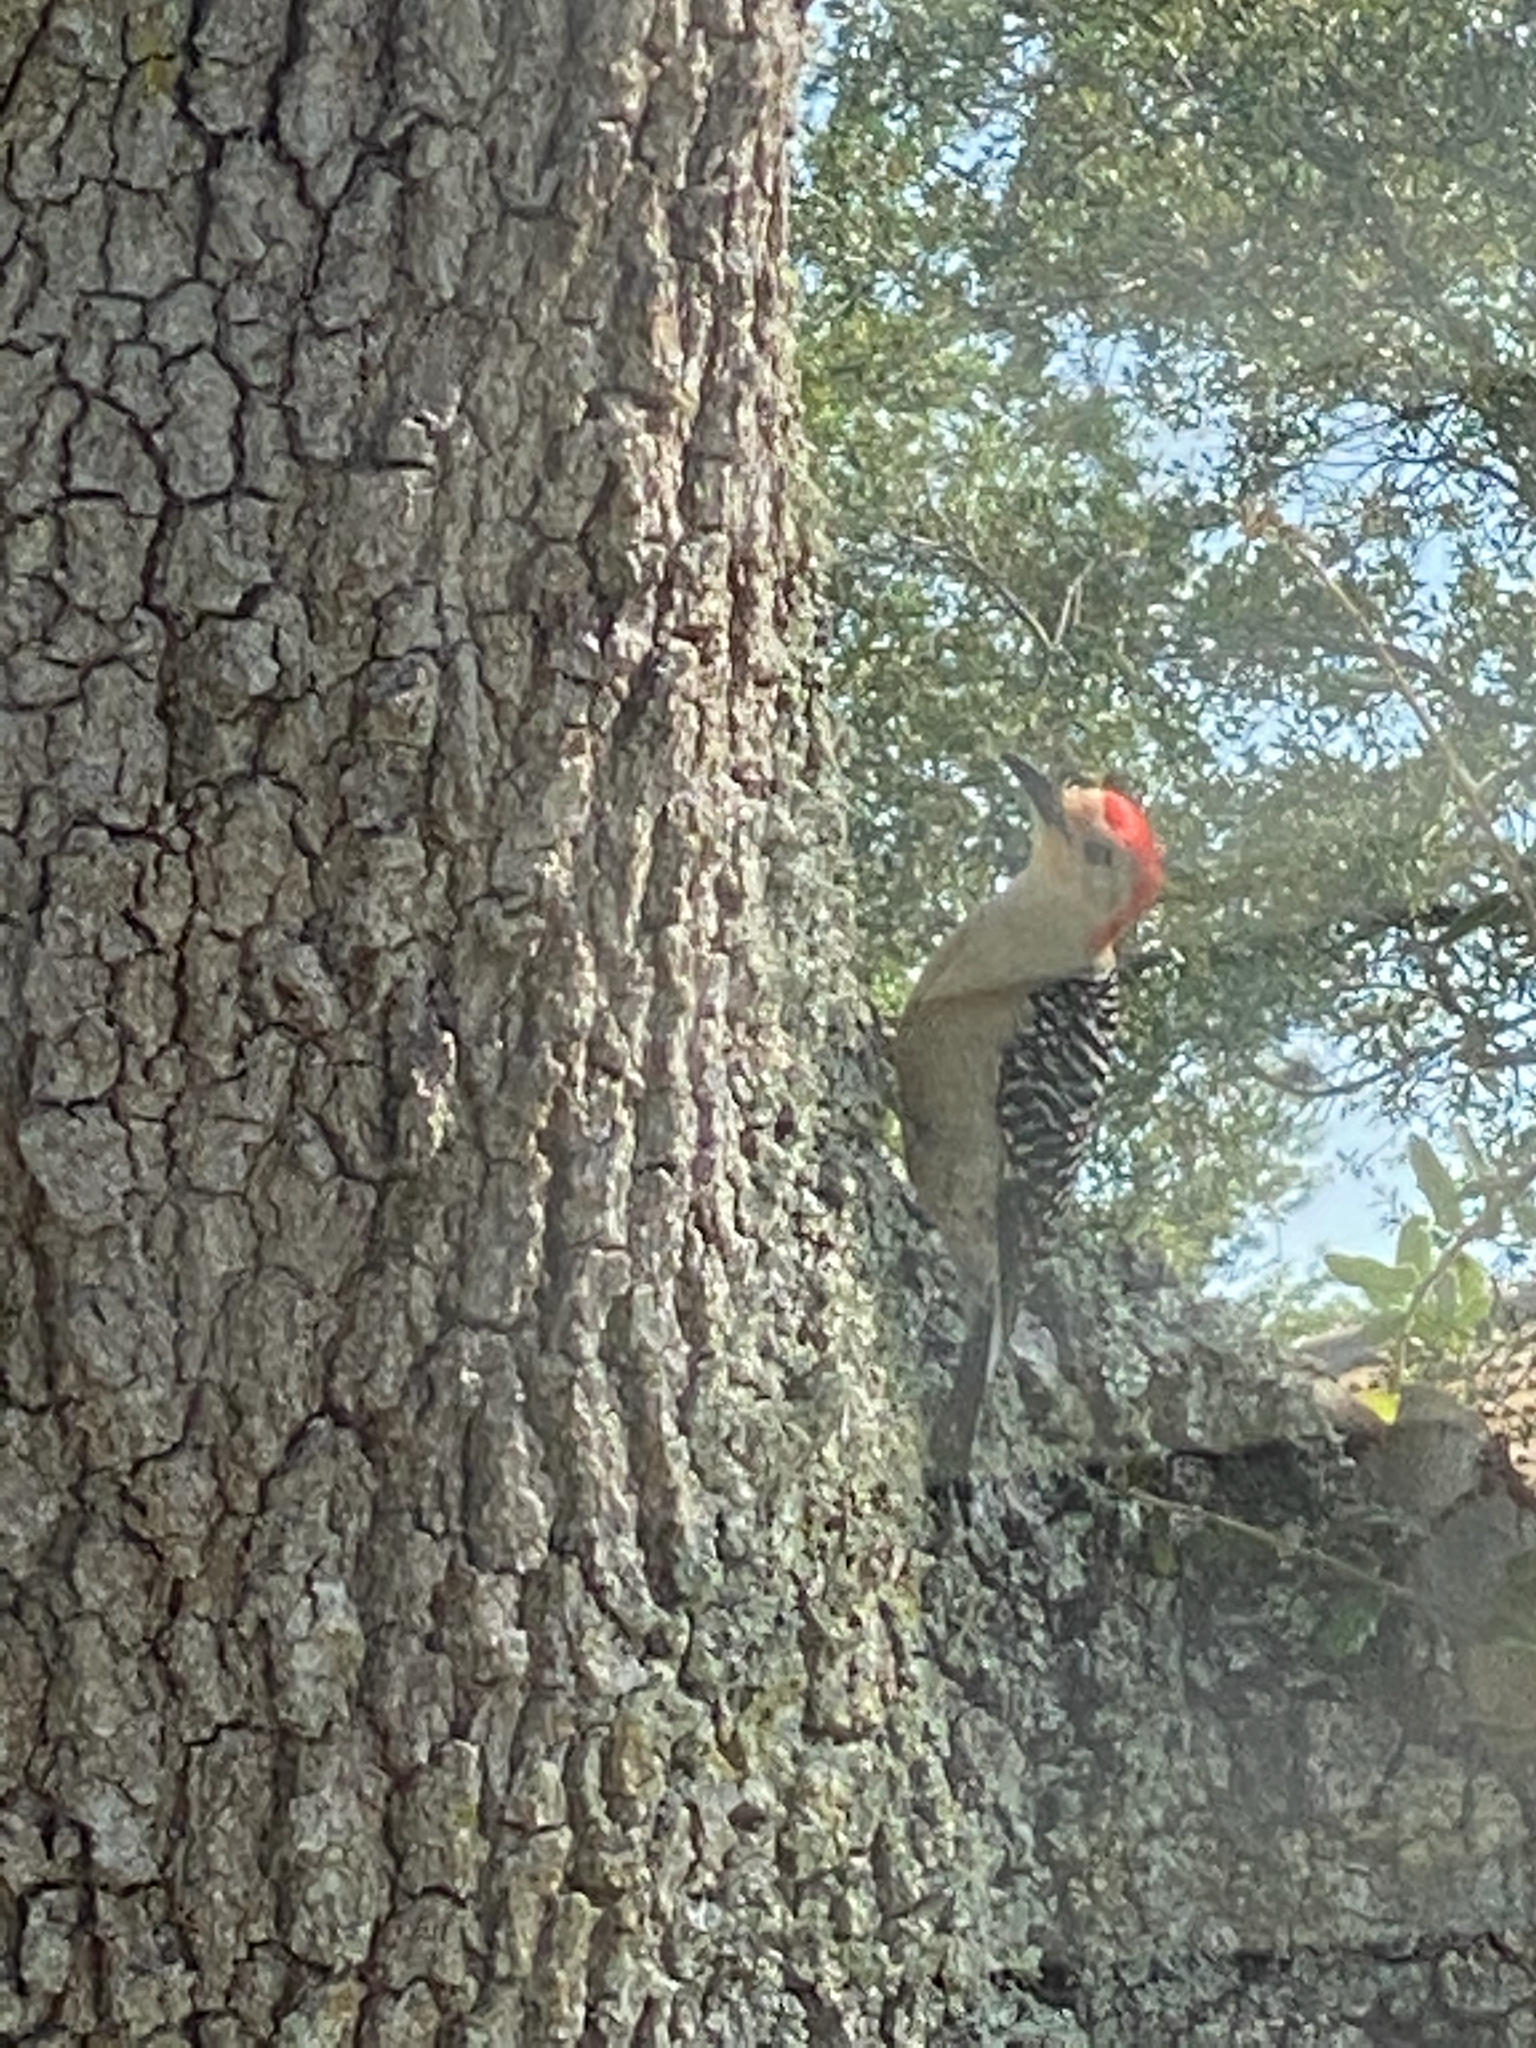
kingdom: Animalia
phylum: Chordata
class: Aves
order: Piciformes
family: Picidae
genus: Melanerpes
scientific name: Melanerpes carolinus
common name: Red-bellied woodpecker
